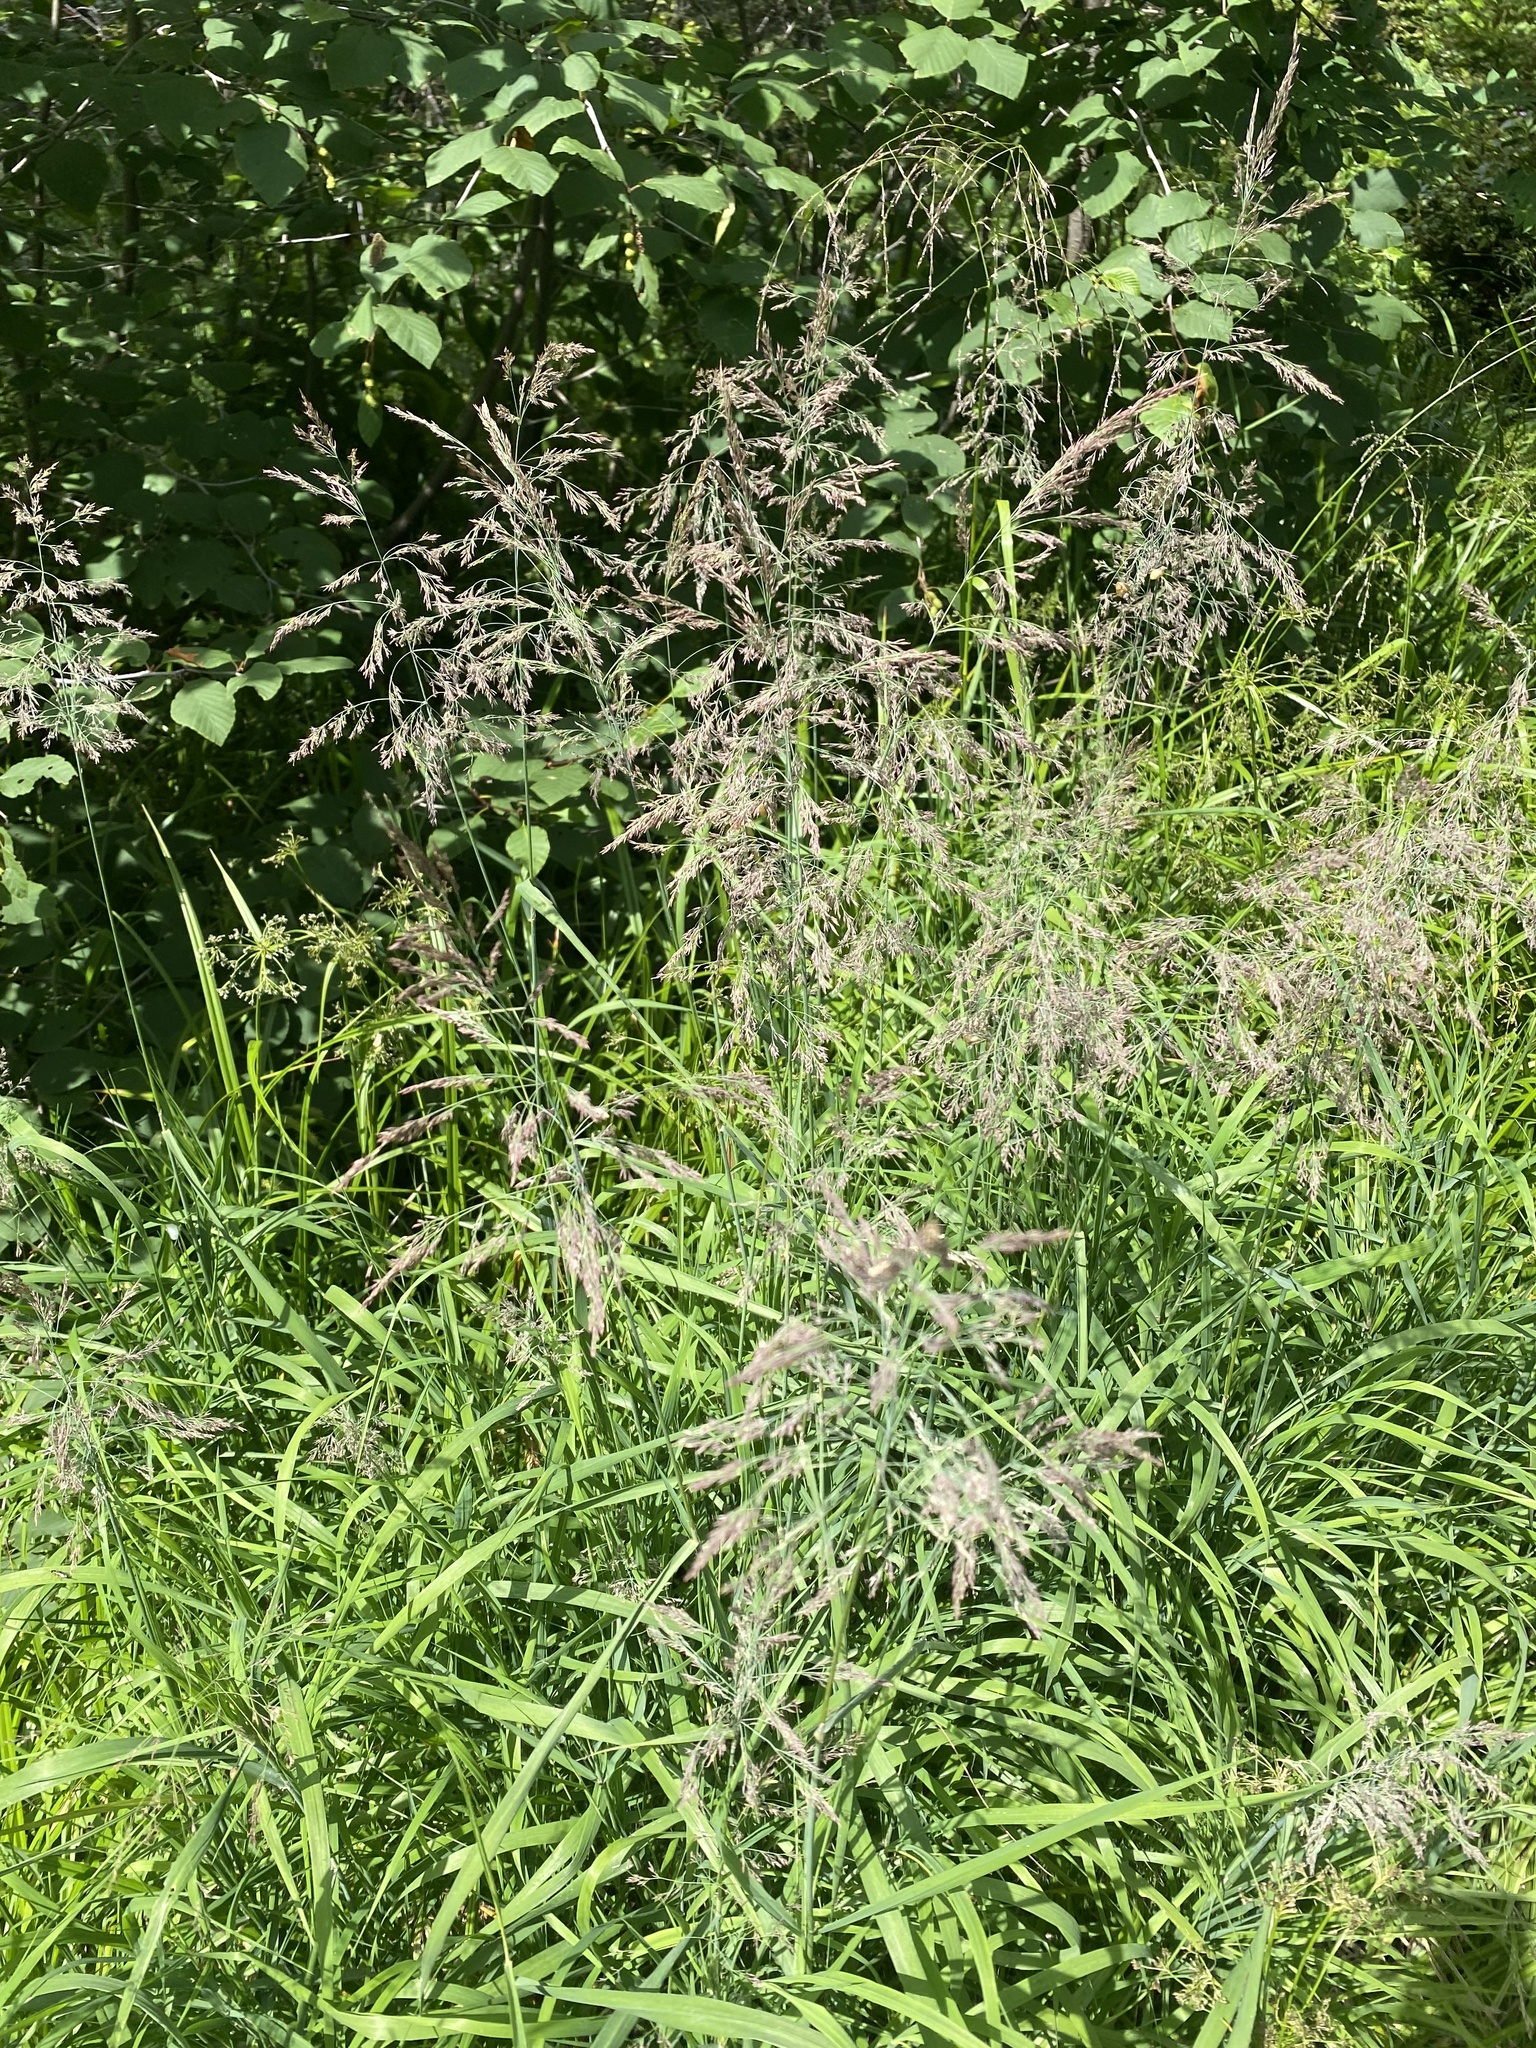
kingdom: Plantae
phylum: Tracheophyta
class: Liliopsida
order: Poales
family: Poaceae
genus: Calamagrostis
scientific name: Calamagrostis purpurea
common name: Scandinavian small-reed
